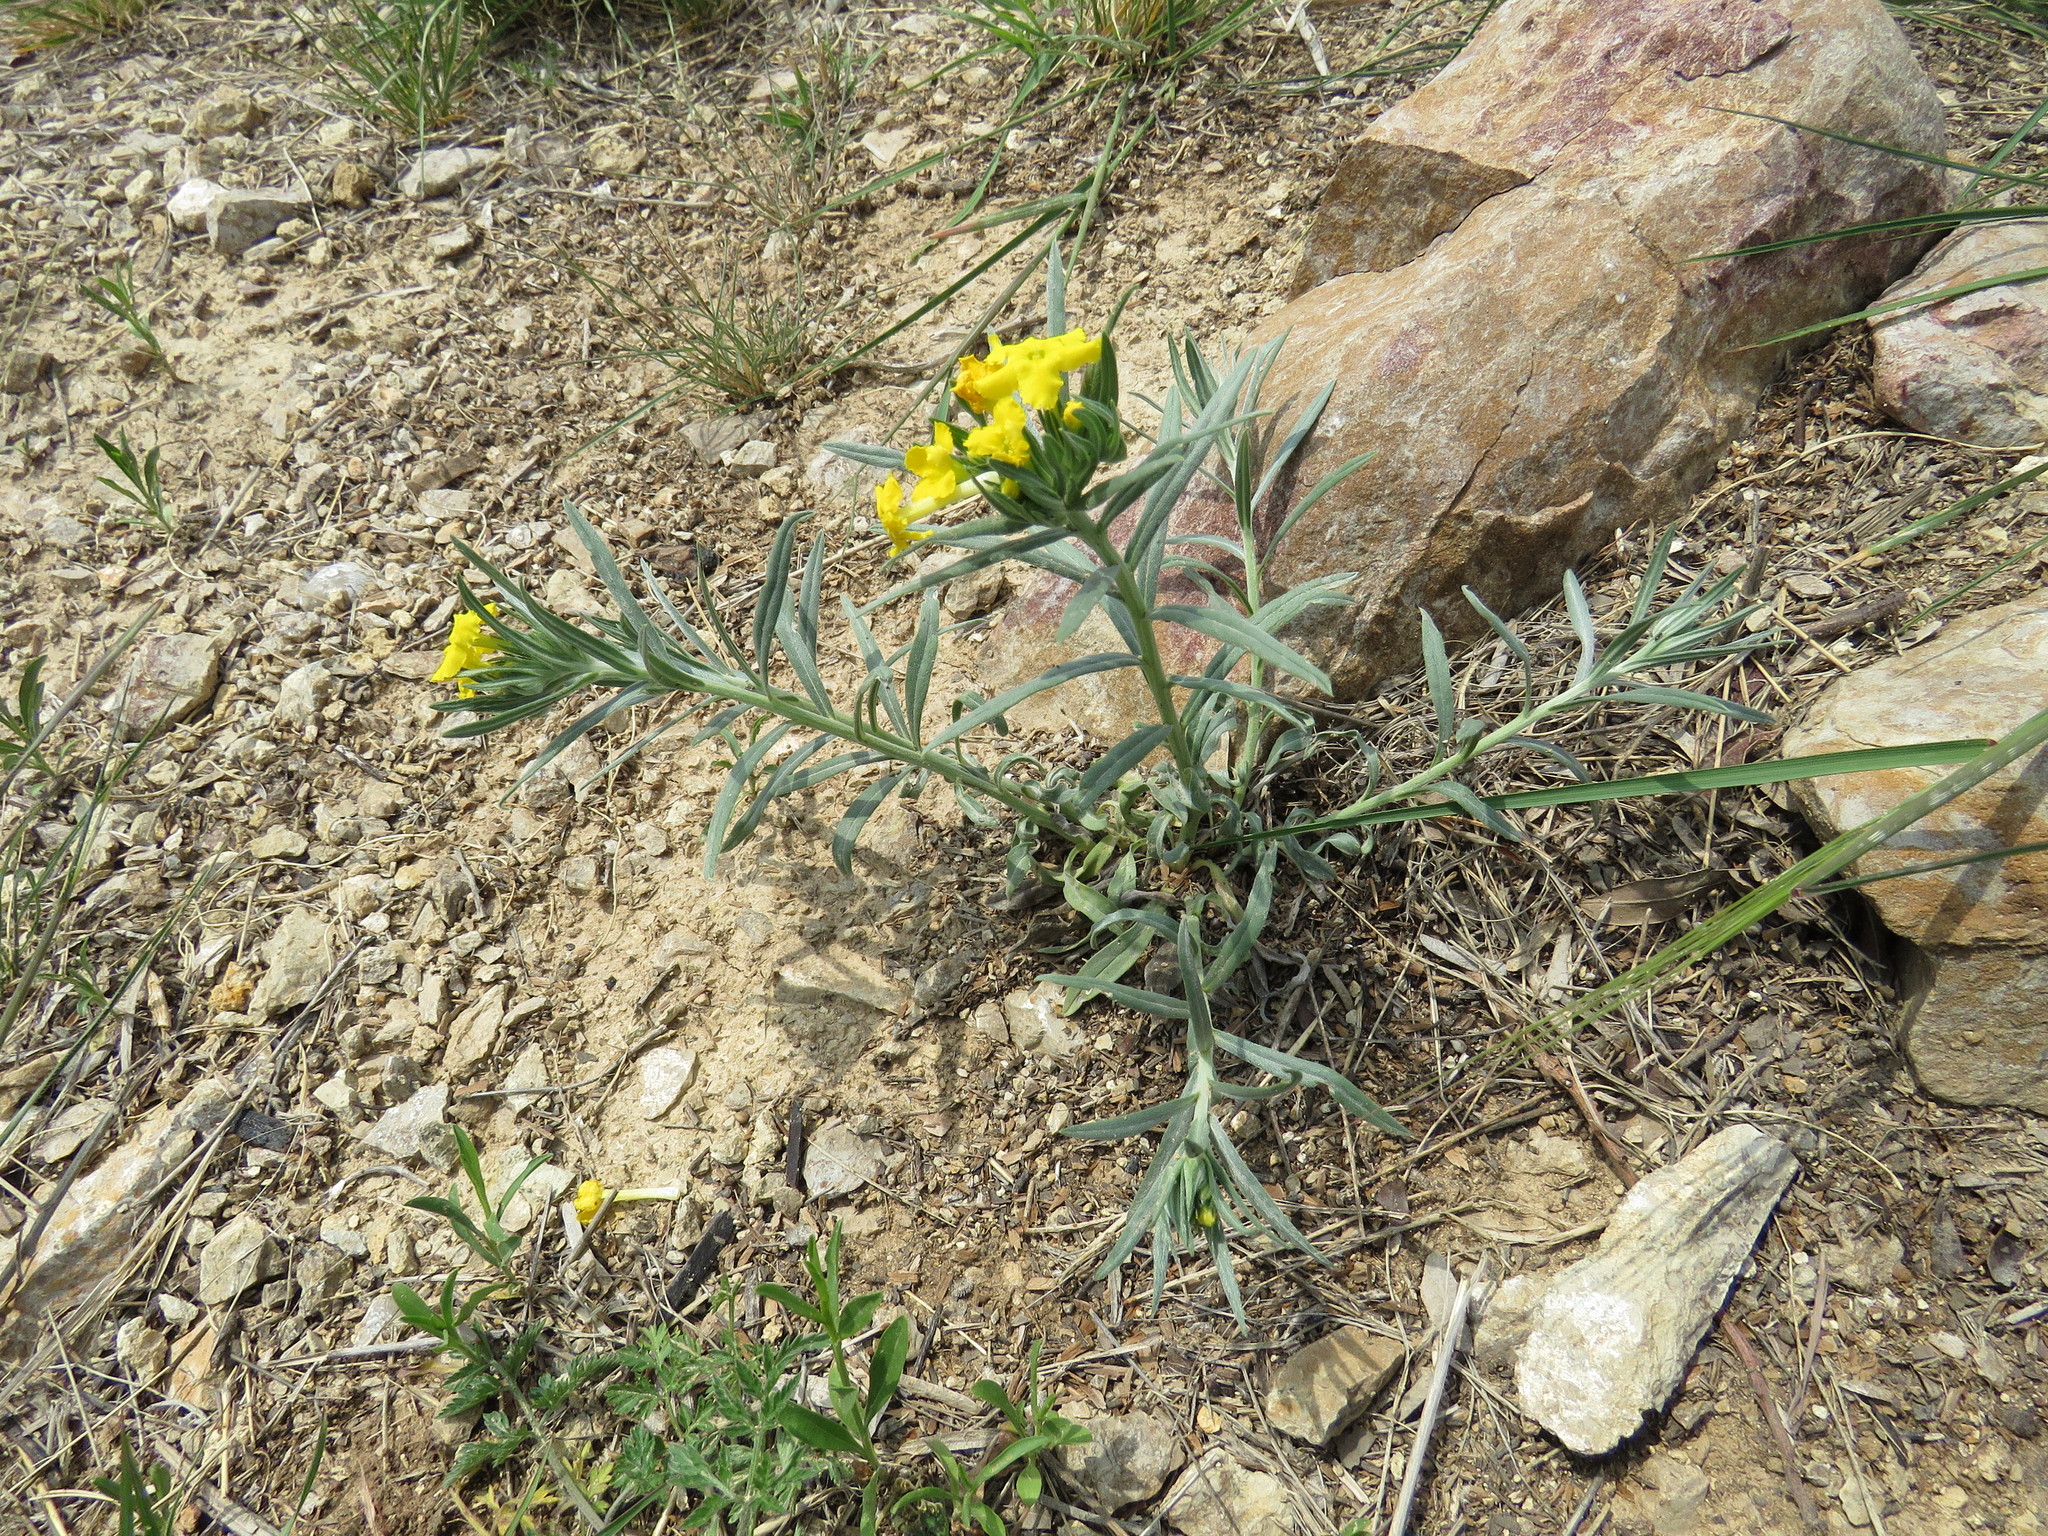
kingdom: Plantae
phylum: Tracheophyta
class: Magnoliopsida
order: Boraginales
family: Boraginaceae
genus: Lithospermum
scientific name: Lithospermum incisum
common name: Fringed gromwell
